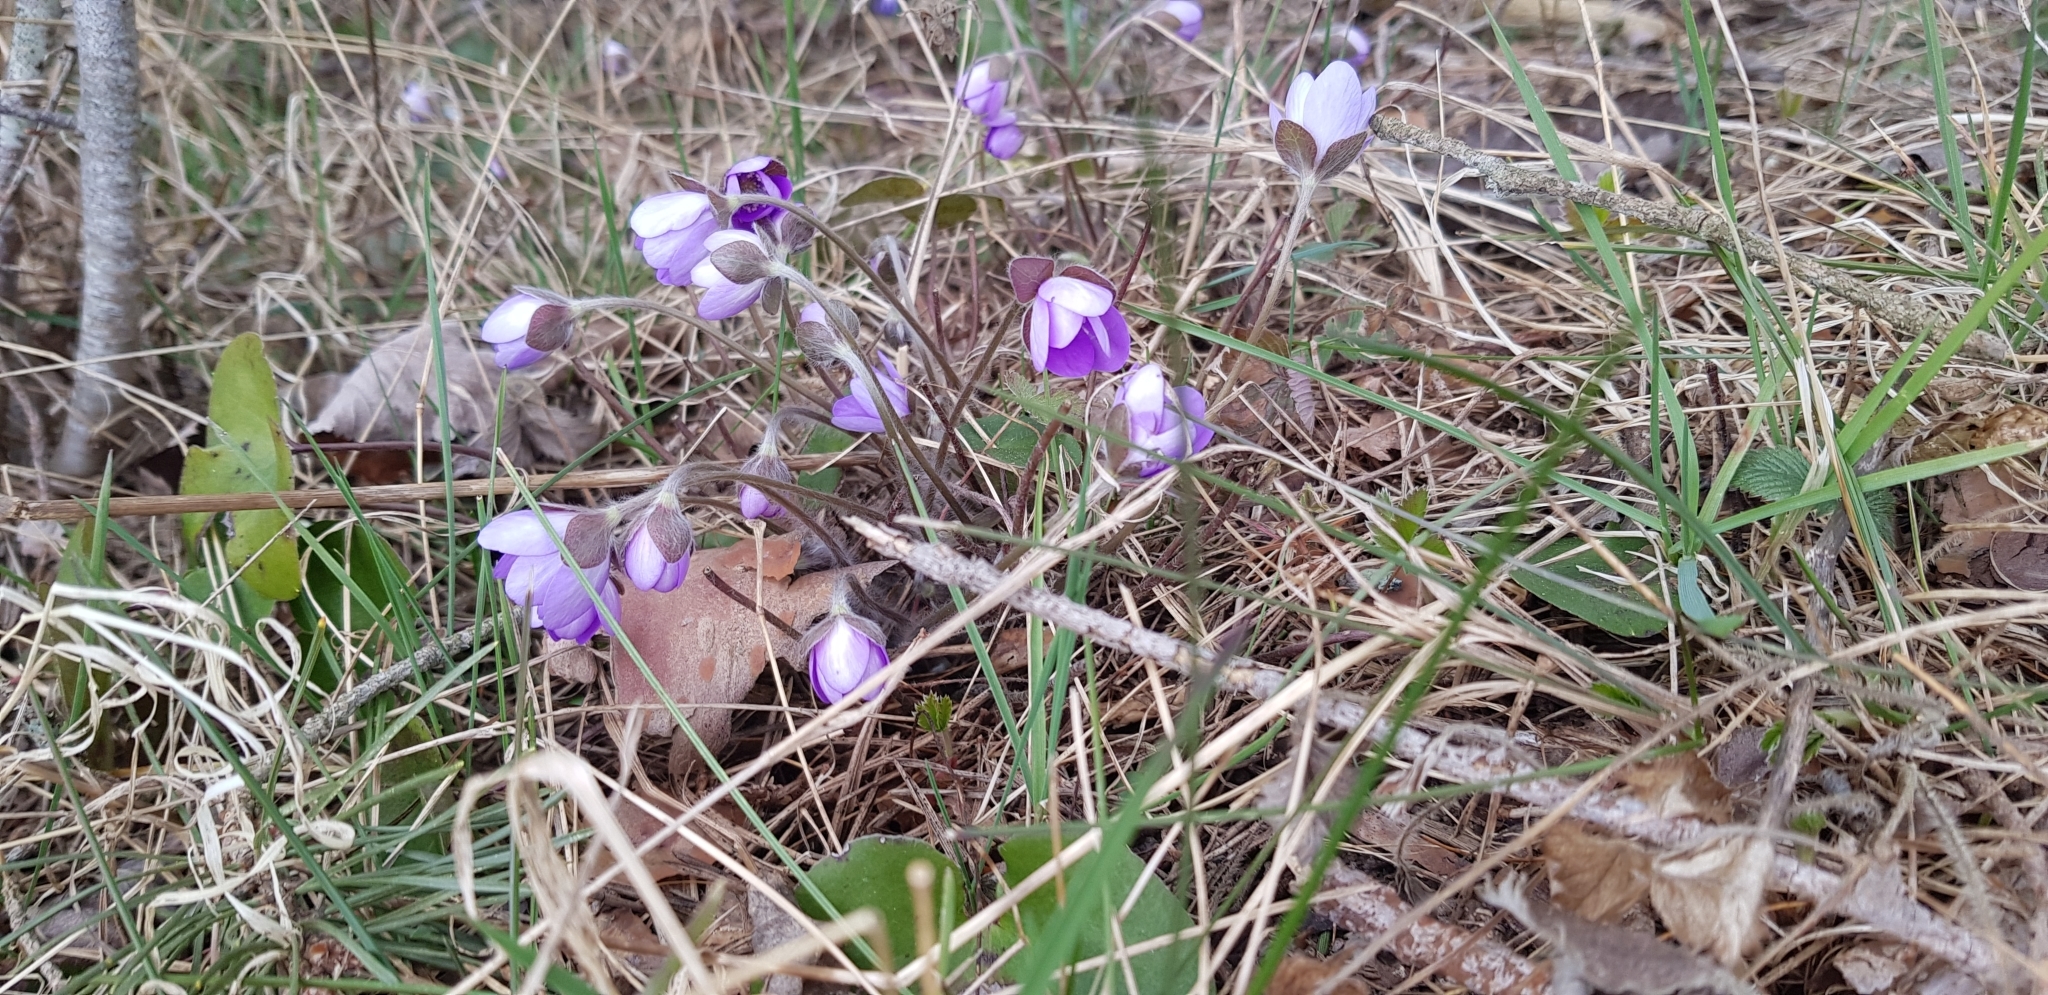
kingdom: Plantae
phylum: Tracheophyta
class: Magnoliopsida
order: Ranunculales
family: Ranunculaceae
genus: Hepatica
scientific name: Hepatica nobilis
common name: Liverleaf
